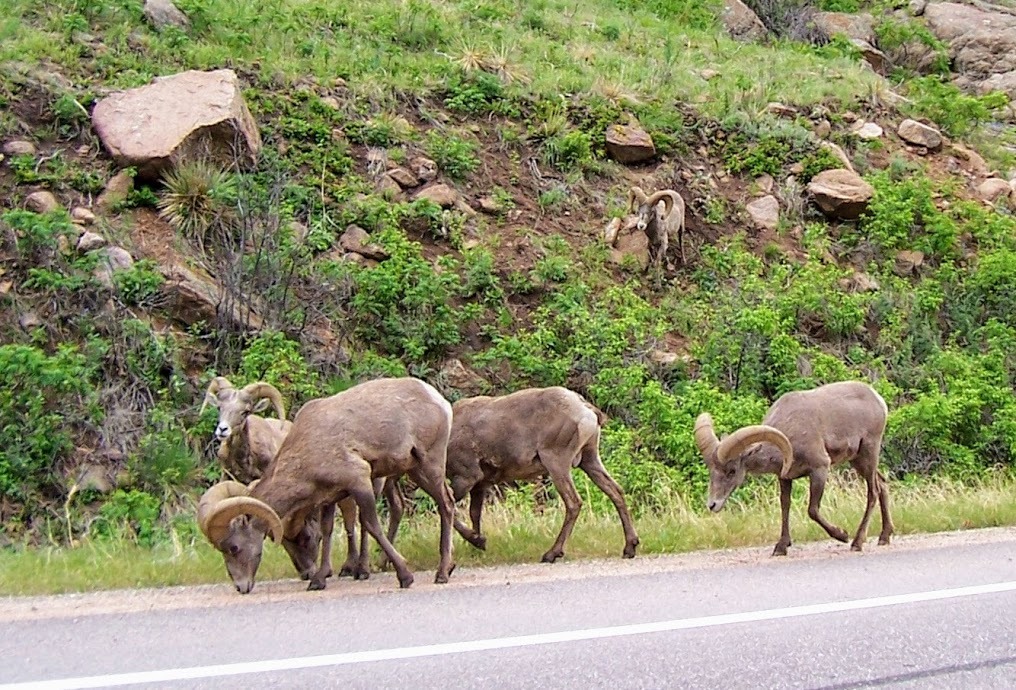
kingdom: Animalia
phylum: Chordata
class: Mammalia
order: Artiodactyla
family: Bovidae
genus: Ovis
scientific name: Ovis canadensis
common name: Bighorn sheep
